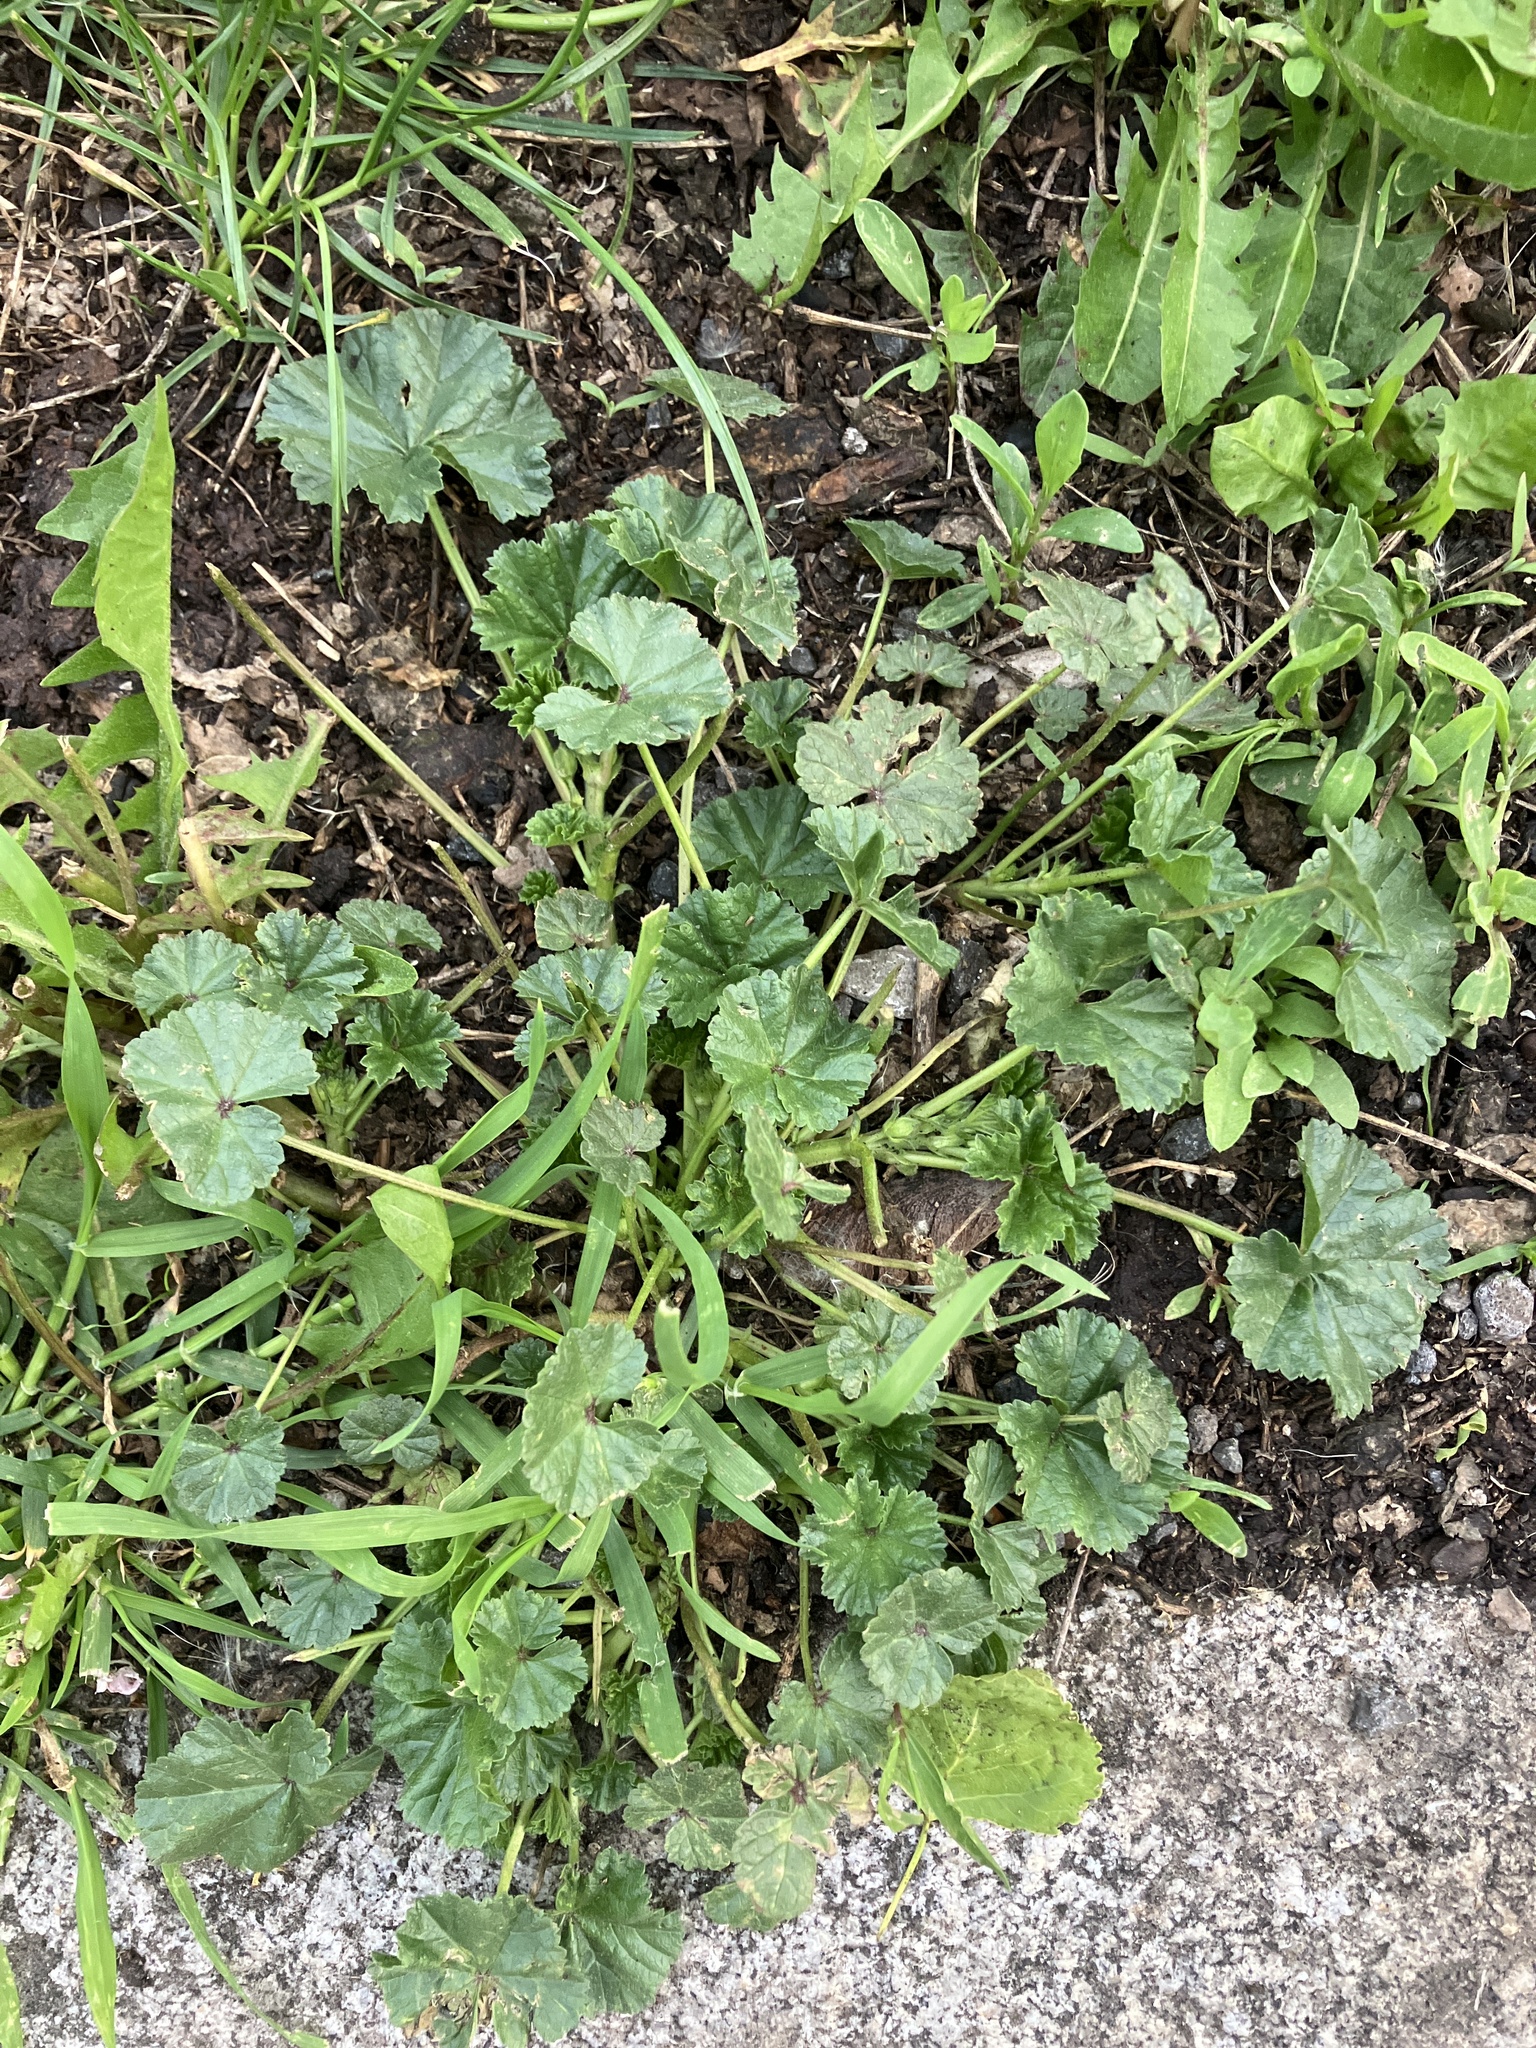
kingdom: Plantae
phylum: Tracheophyta
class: Magnoliopsida
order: Malvales
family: Malvaceae
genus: Malva
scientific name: Malva sylvestris
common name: Common mallow
